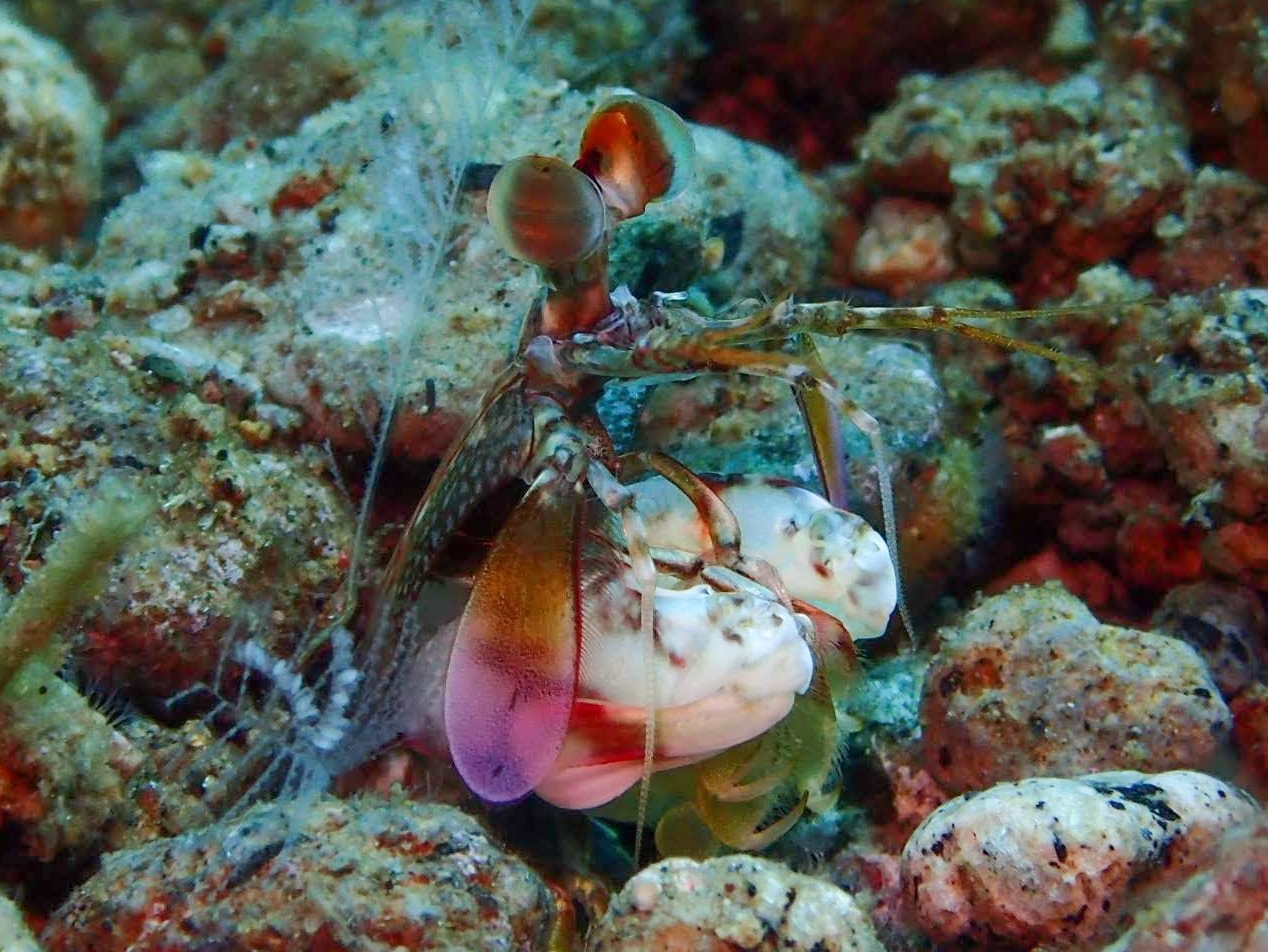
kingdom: Animalia
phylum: Arthropoda
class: Malacostraca
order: Stomatopoda
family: Odontodactylidae
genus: Odontodactylus
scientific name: Odontodactylus latirostris
